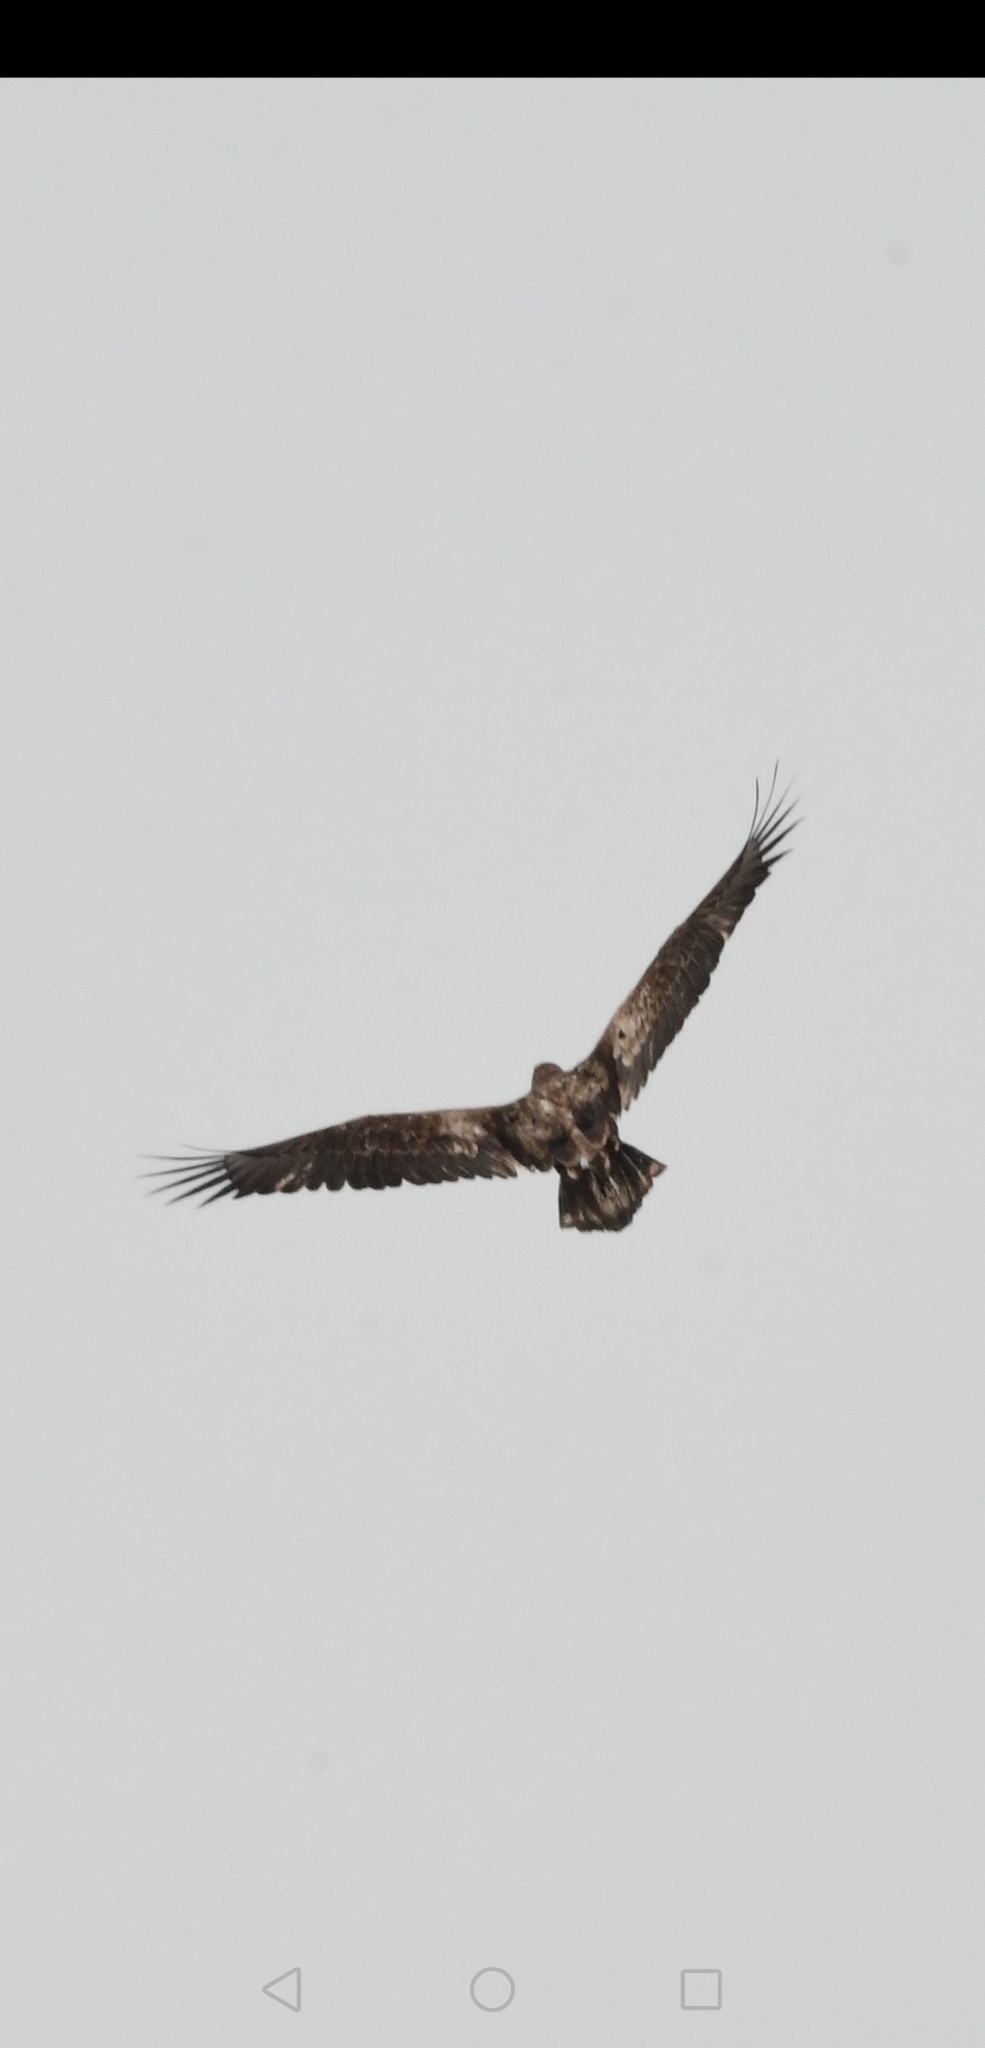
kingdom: Animalia
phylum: Chordata
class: Aves
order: Accipitriformes
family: Accipitridae
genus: Haliaeetus
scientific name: Haliaeetus leucocephalus
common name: Bald eagle
